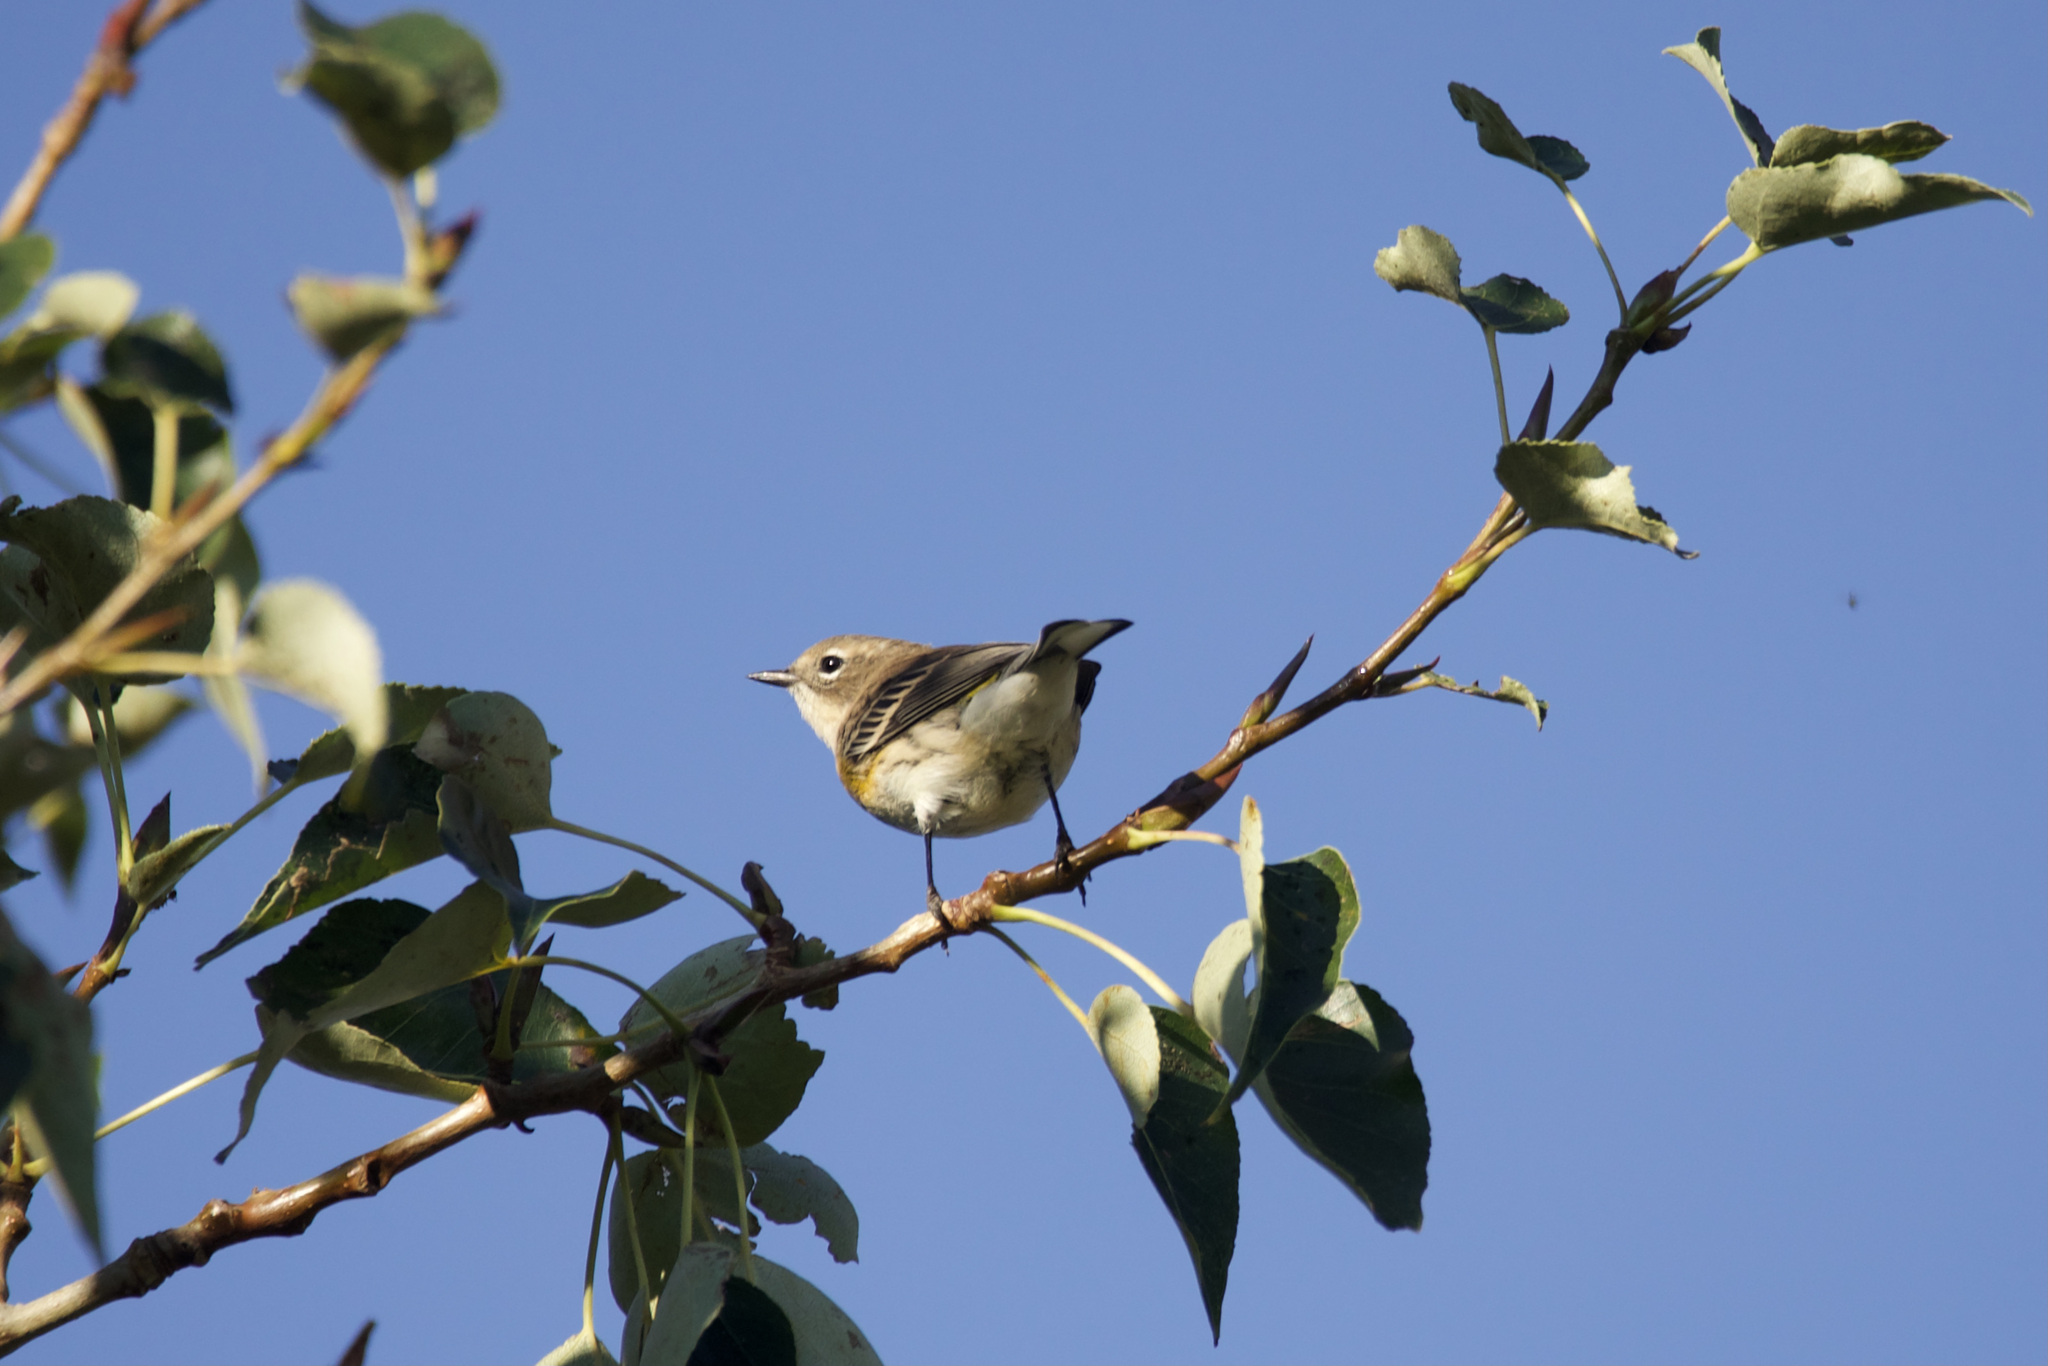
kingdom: Animalia
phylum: Chordata
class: Aves
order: Passeriformes
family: Parulidae
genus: Setophaga
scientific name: Setophaga coronata
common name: Myrtle warbler
